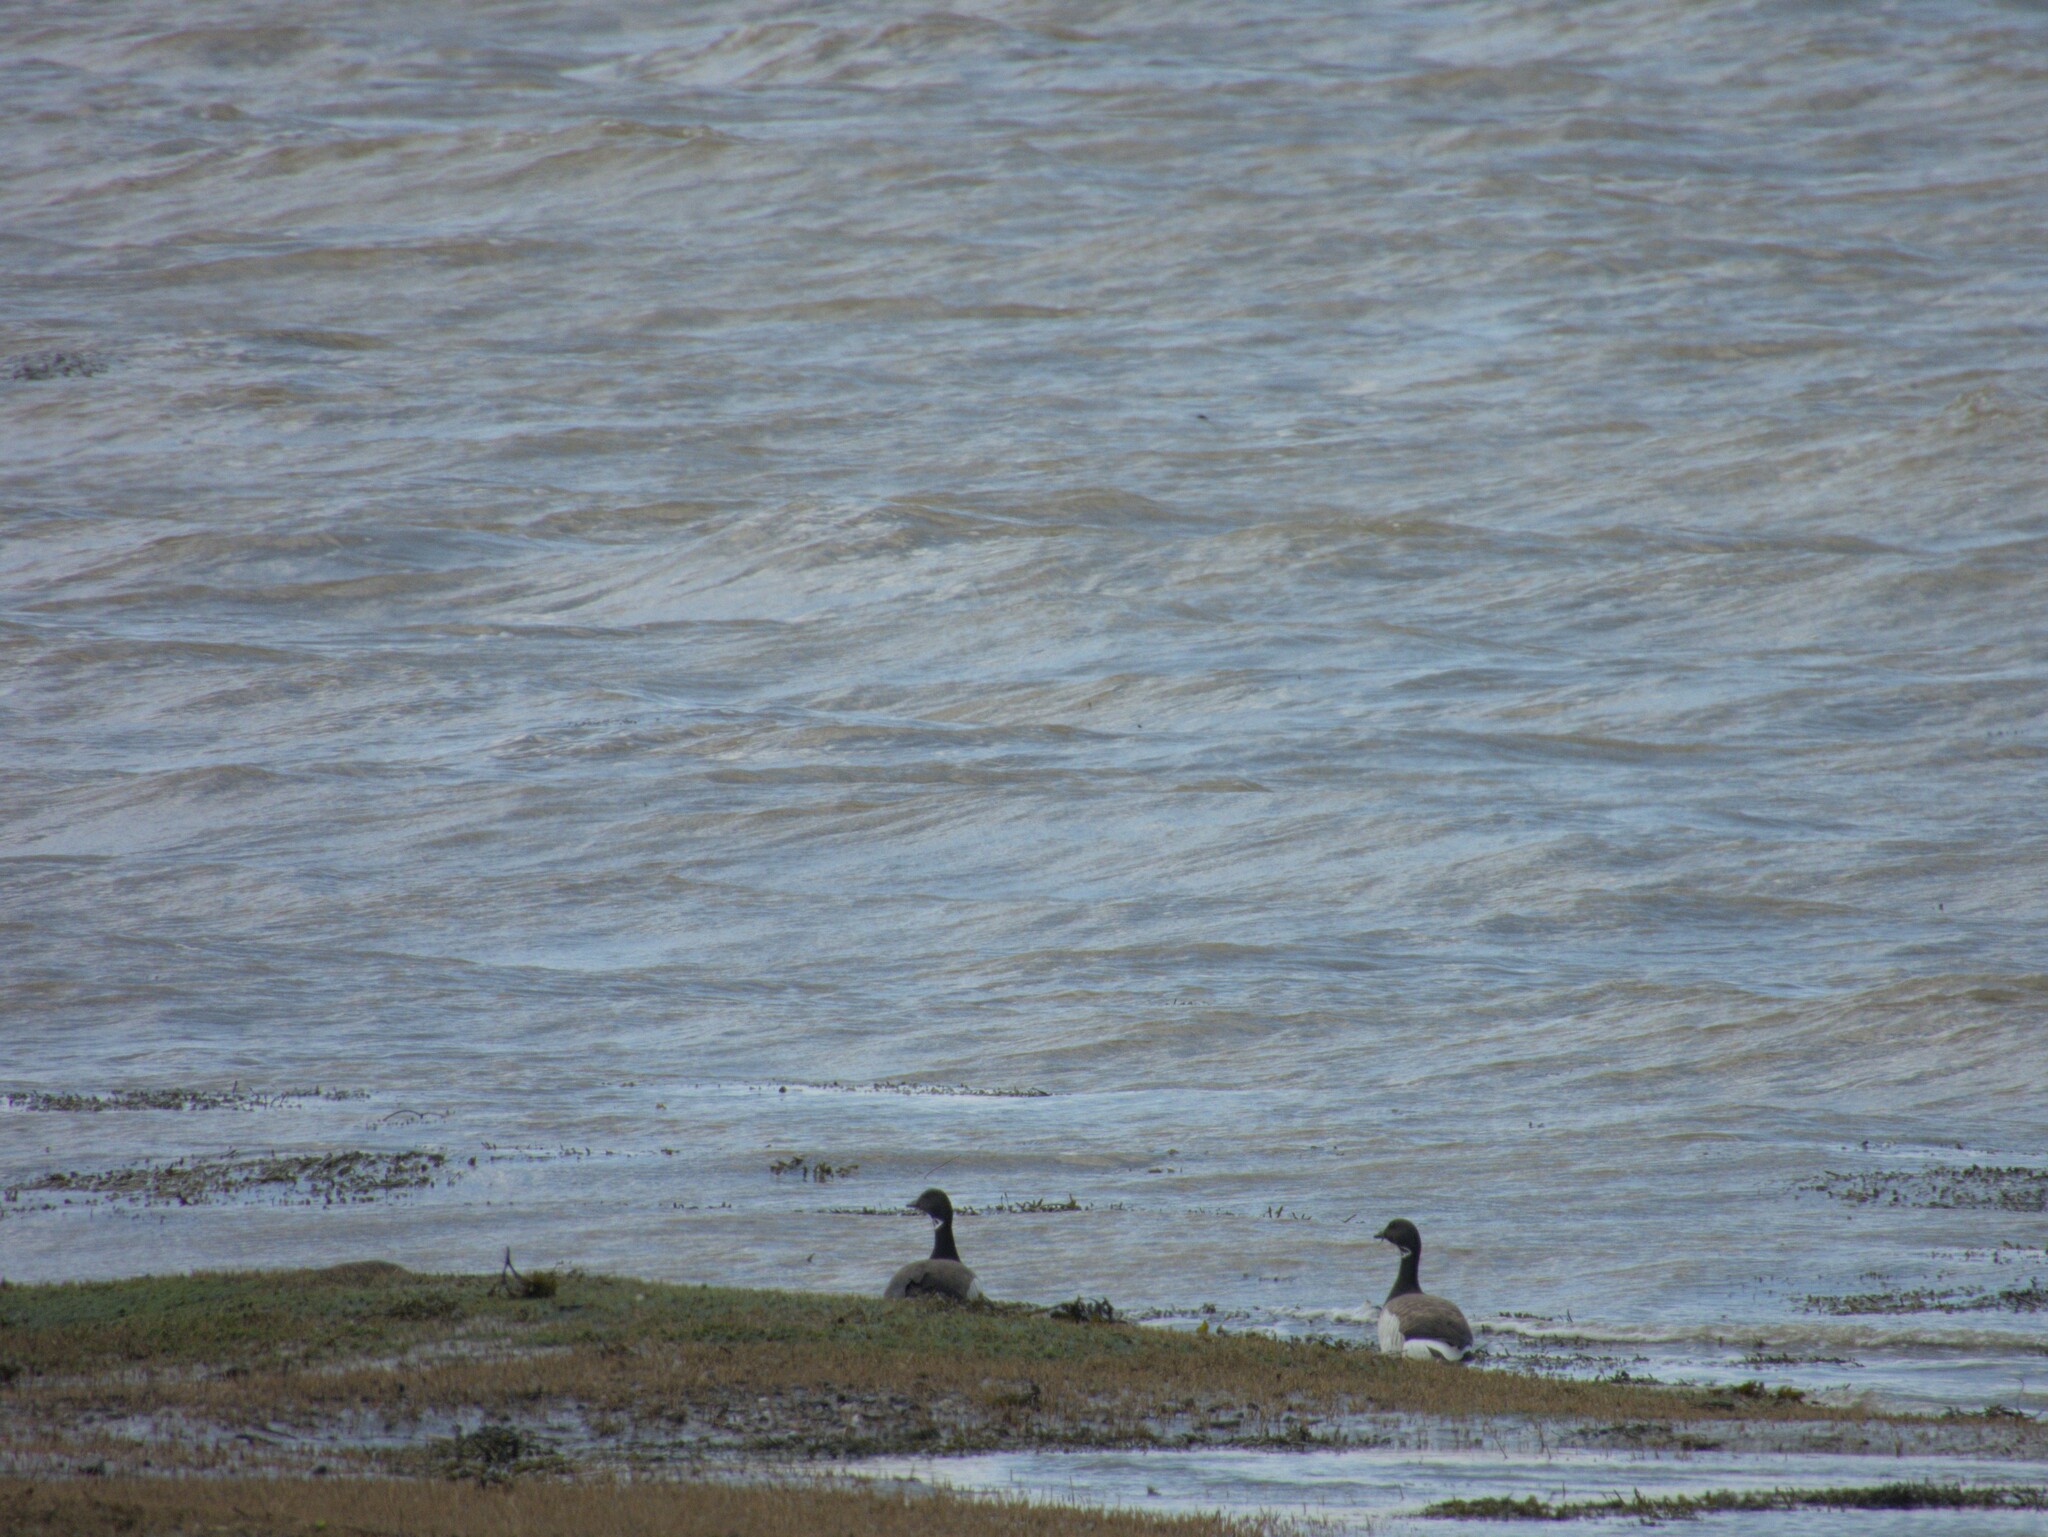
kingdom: Animalia
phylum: Chordata
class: Aves
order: Anseriformes
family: Anatidae
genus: Branta
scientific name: Branta bernicla
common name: Brant goose
